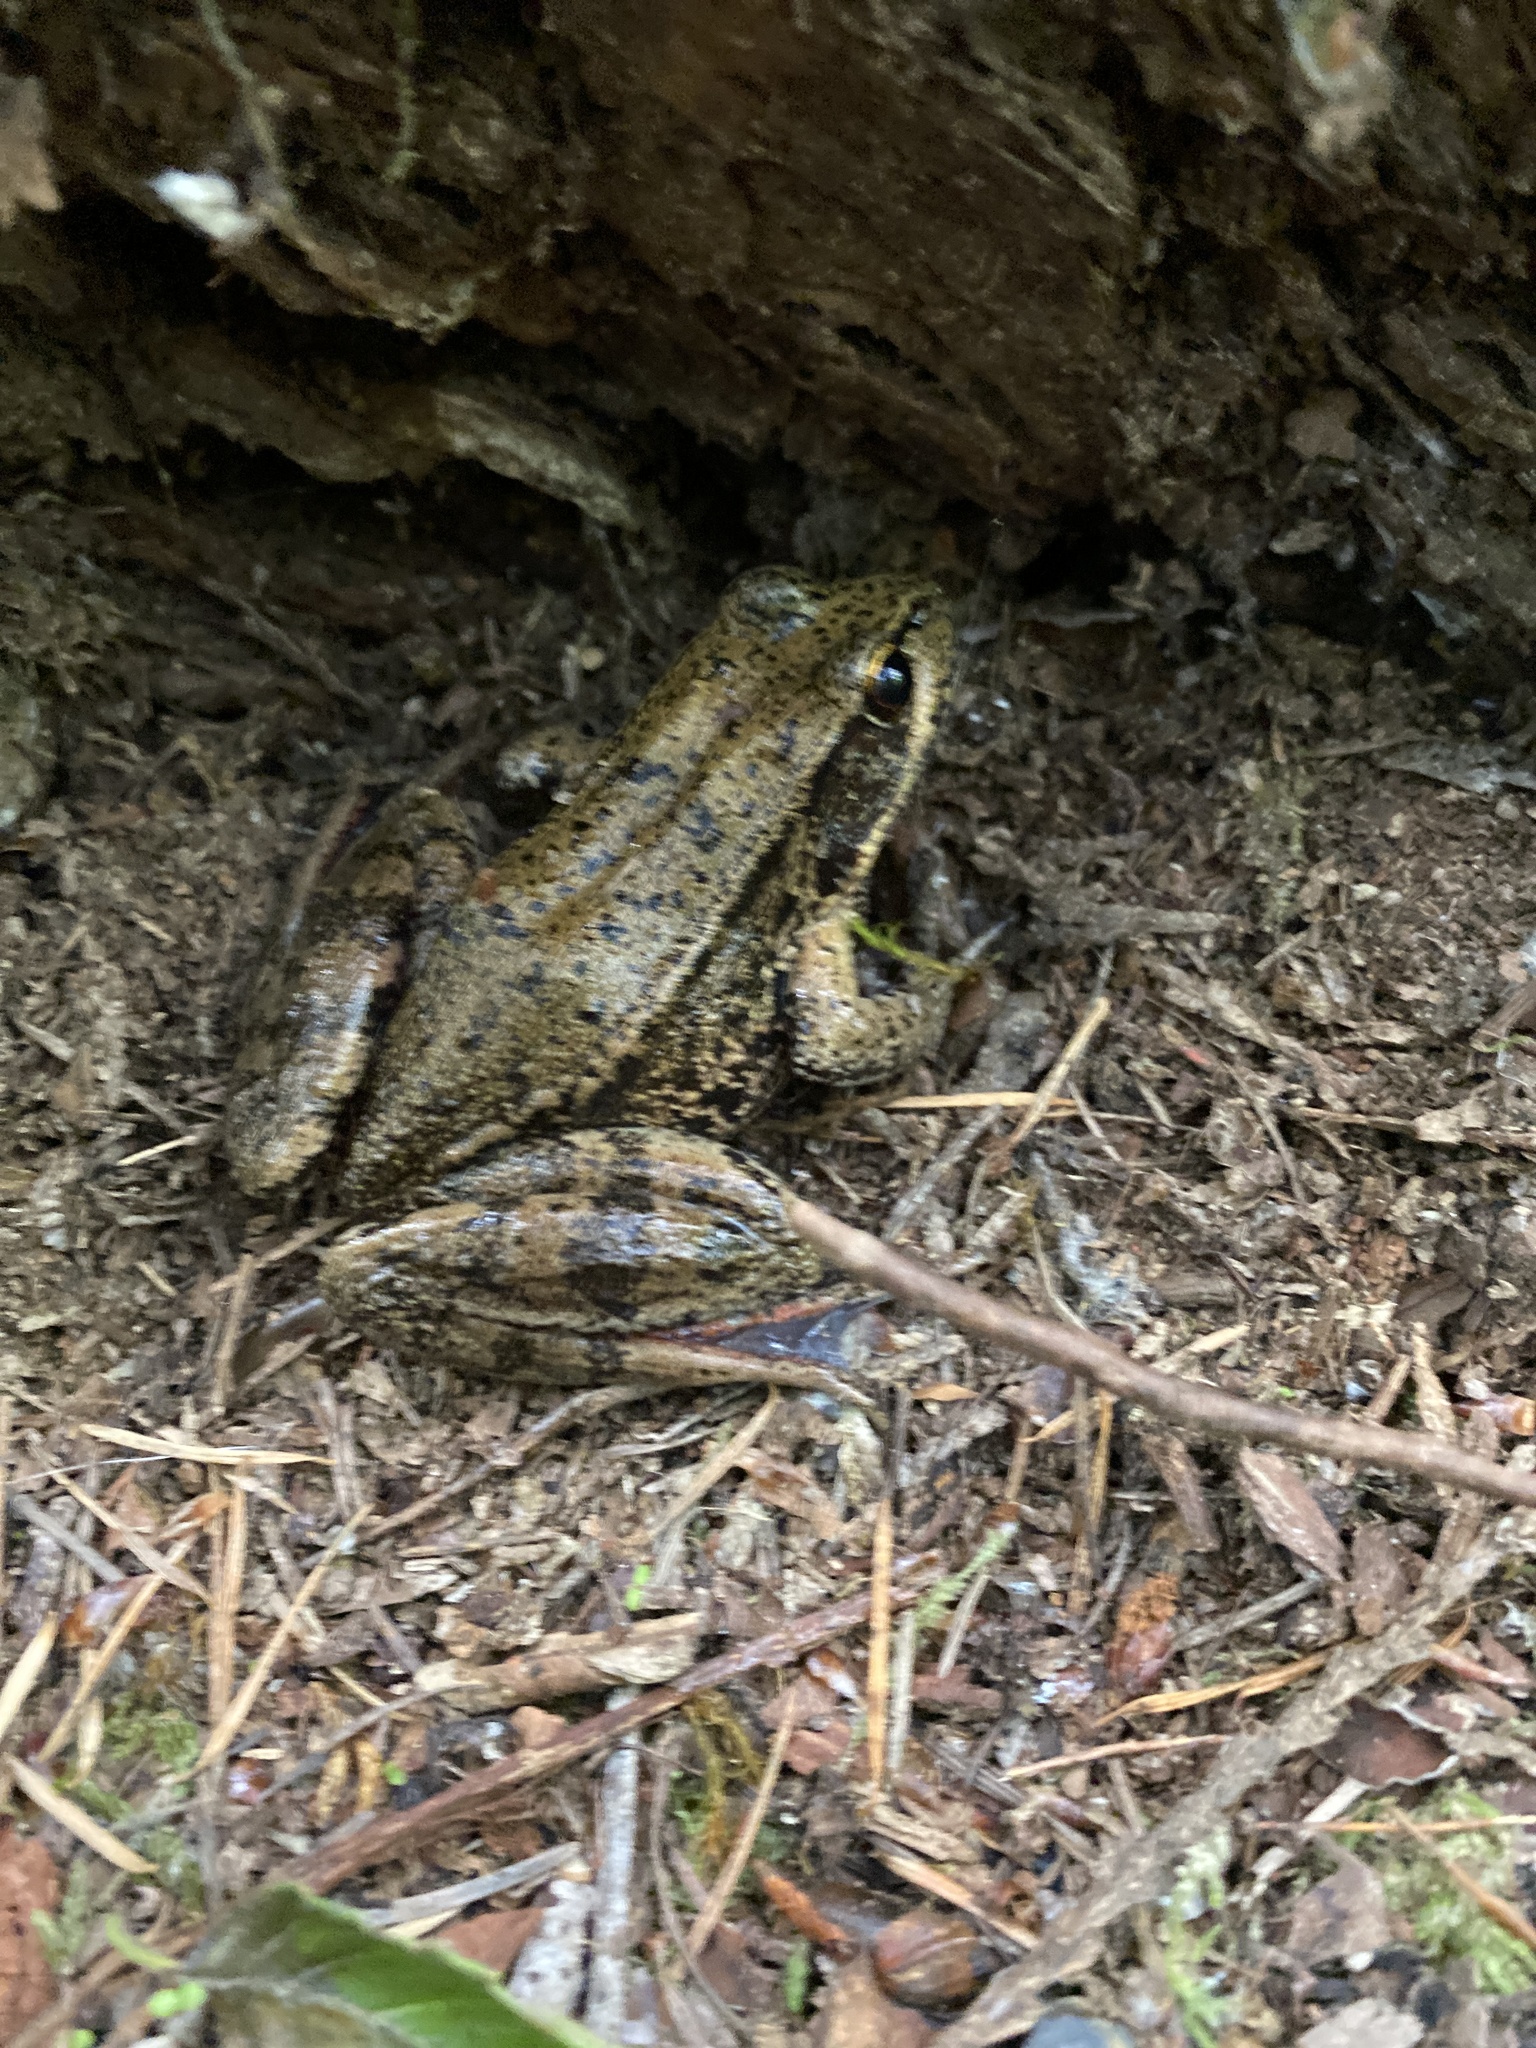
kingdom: Animalia
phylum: Chordata
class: Amphibia
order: Anura
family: Ranidae
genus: Rana
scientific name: Rana aurora
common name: Red-legged frog
